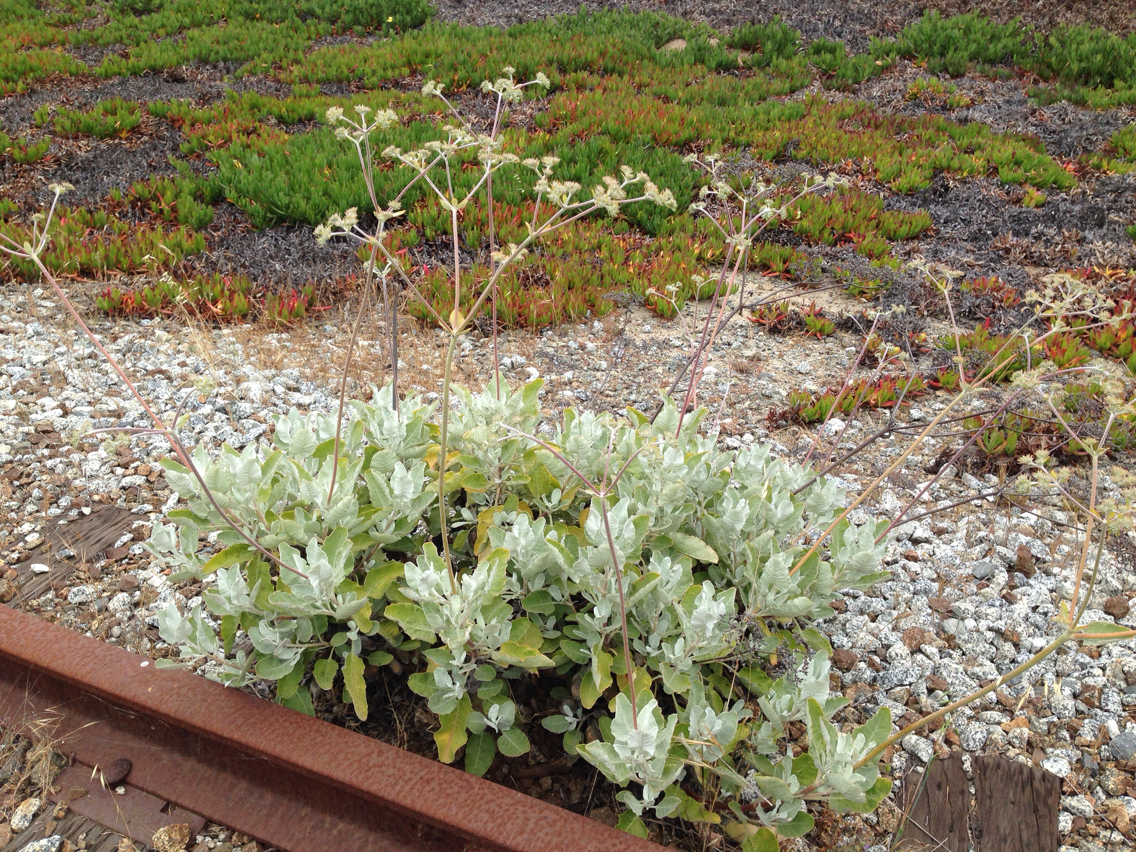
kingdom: Plantae
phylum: Tracheophyta
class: Magnoliopsida
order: Caryophyllales
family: Polygonaceae
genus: Eriogonum
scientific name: Eriogonum giganteum
